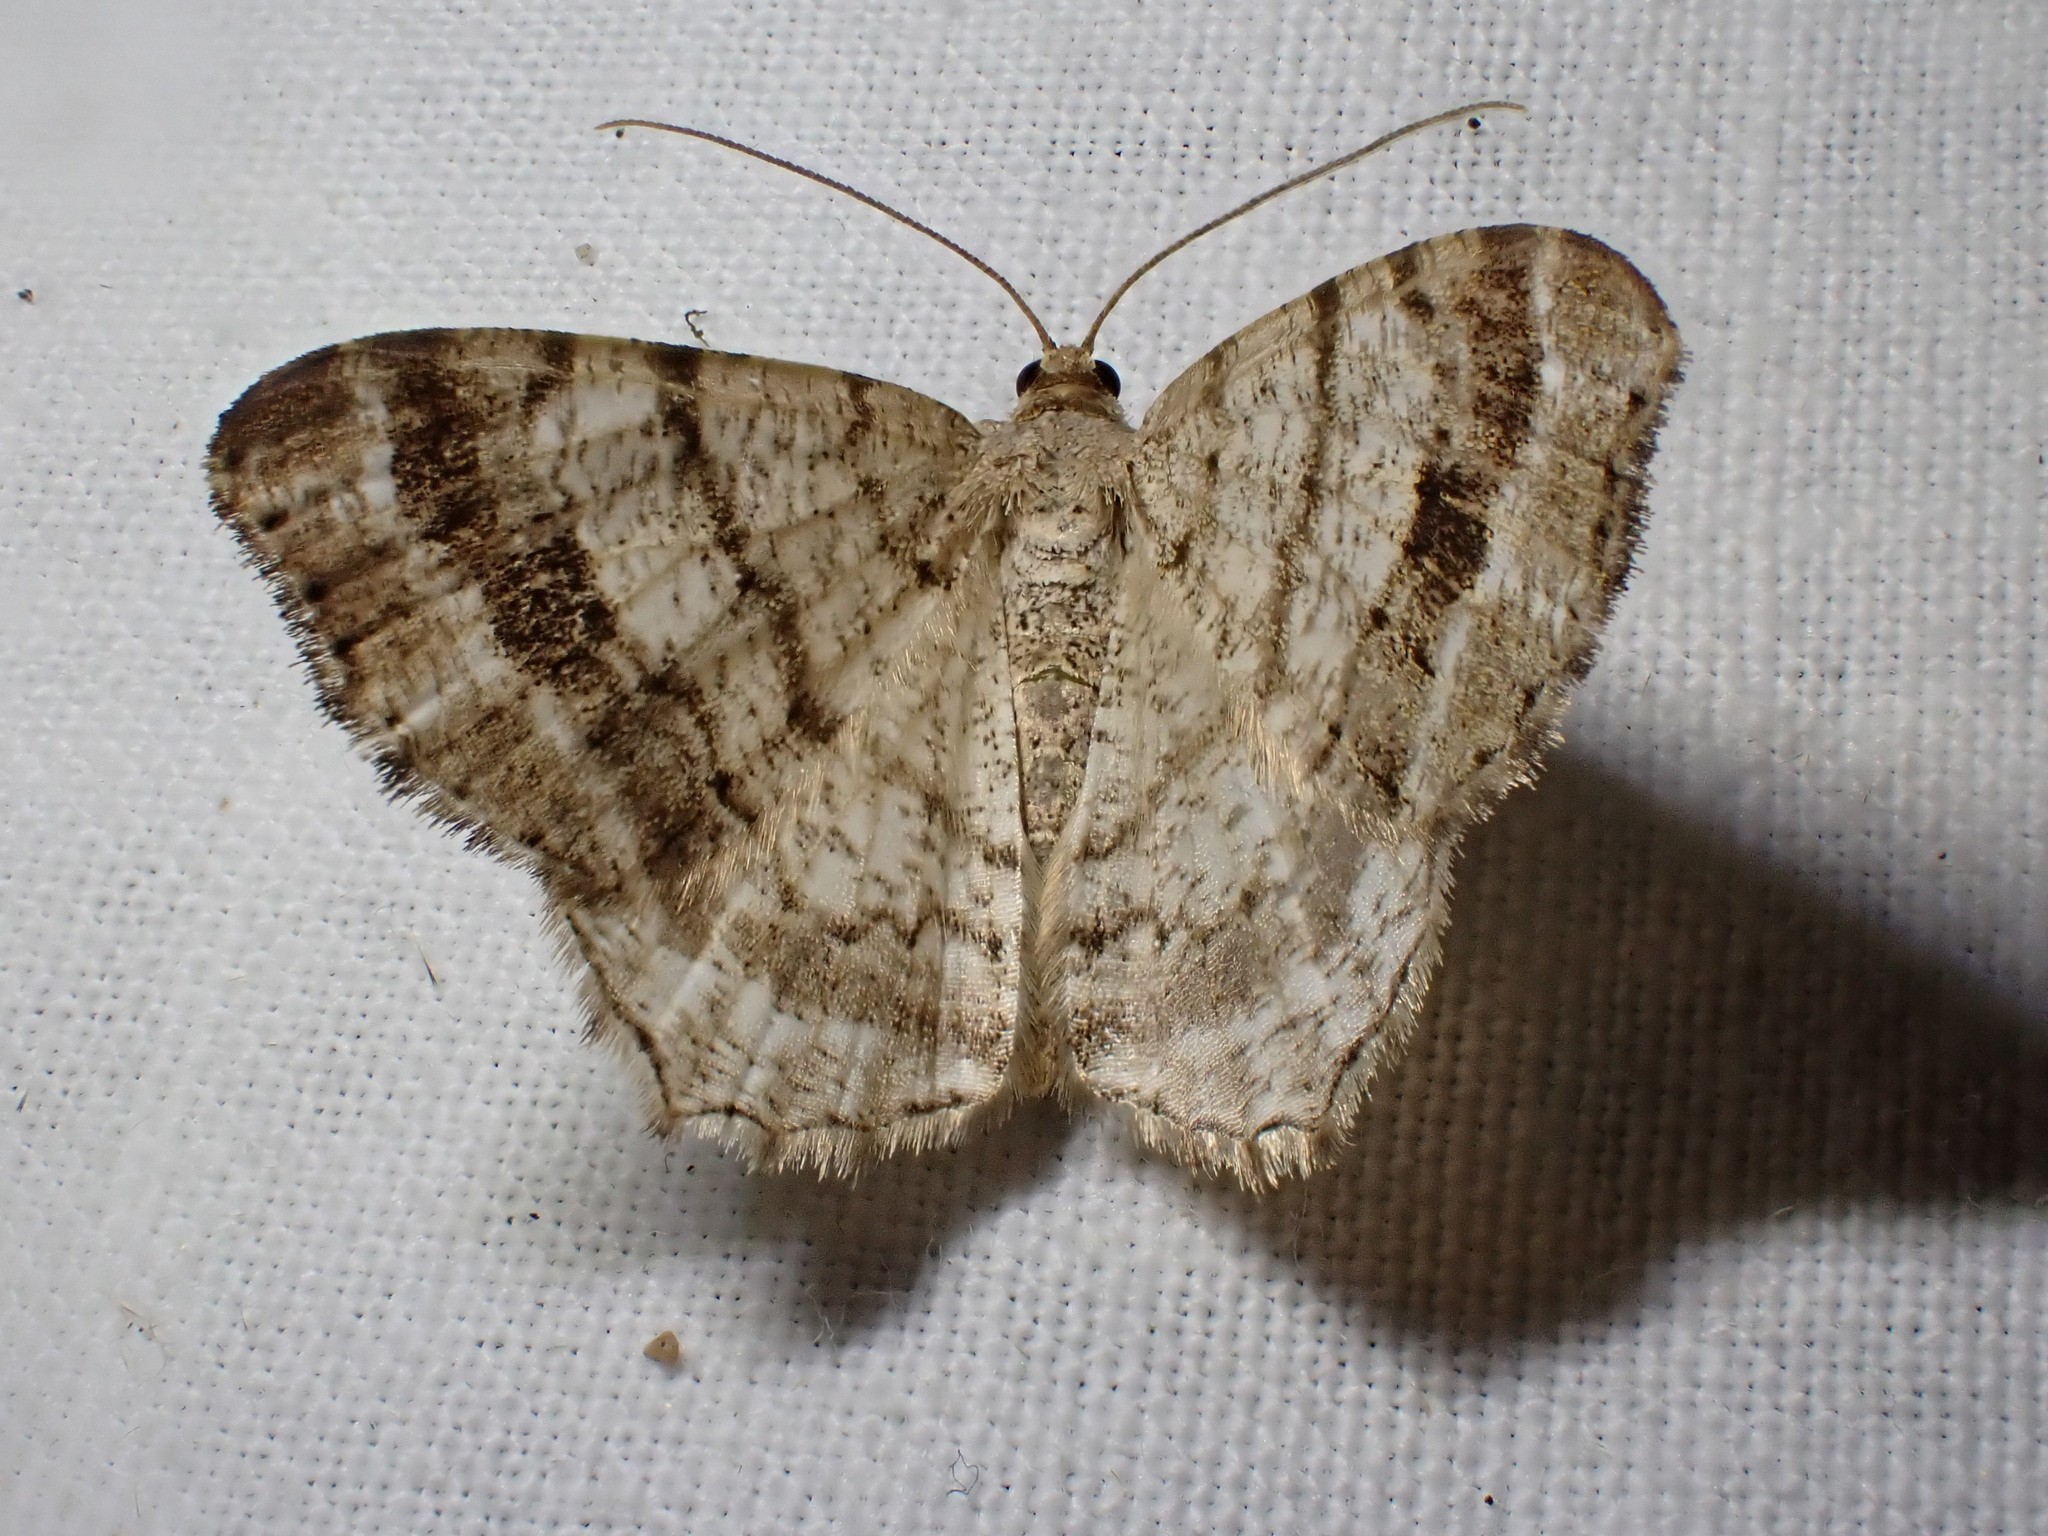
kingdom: Animalia
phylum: Arthropoda
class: Insecta
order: Lepidoptera
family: Geometridae
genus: Macaria
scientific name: Macaria signaria
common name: Dusky peacock
